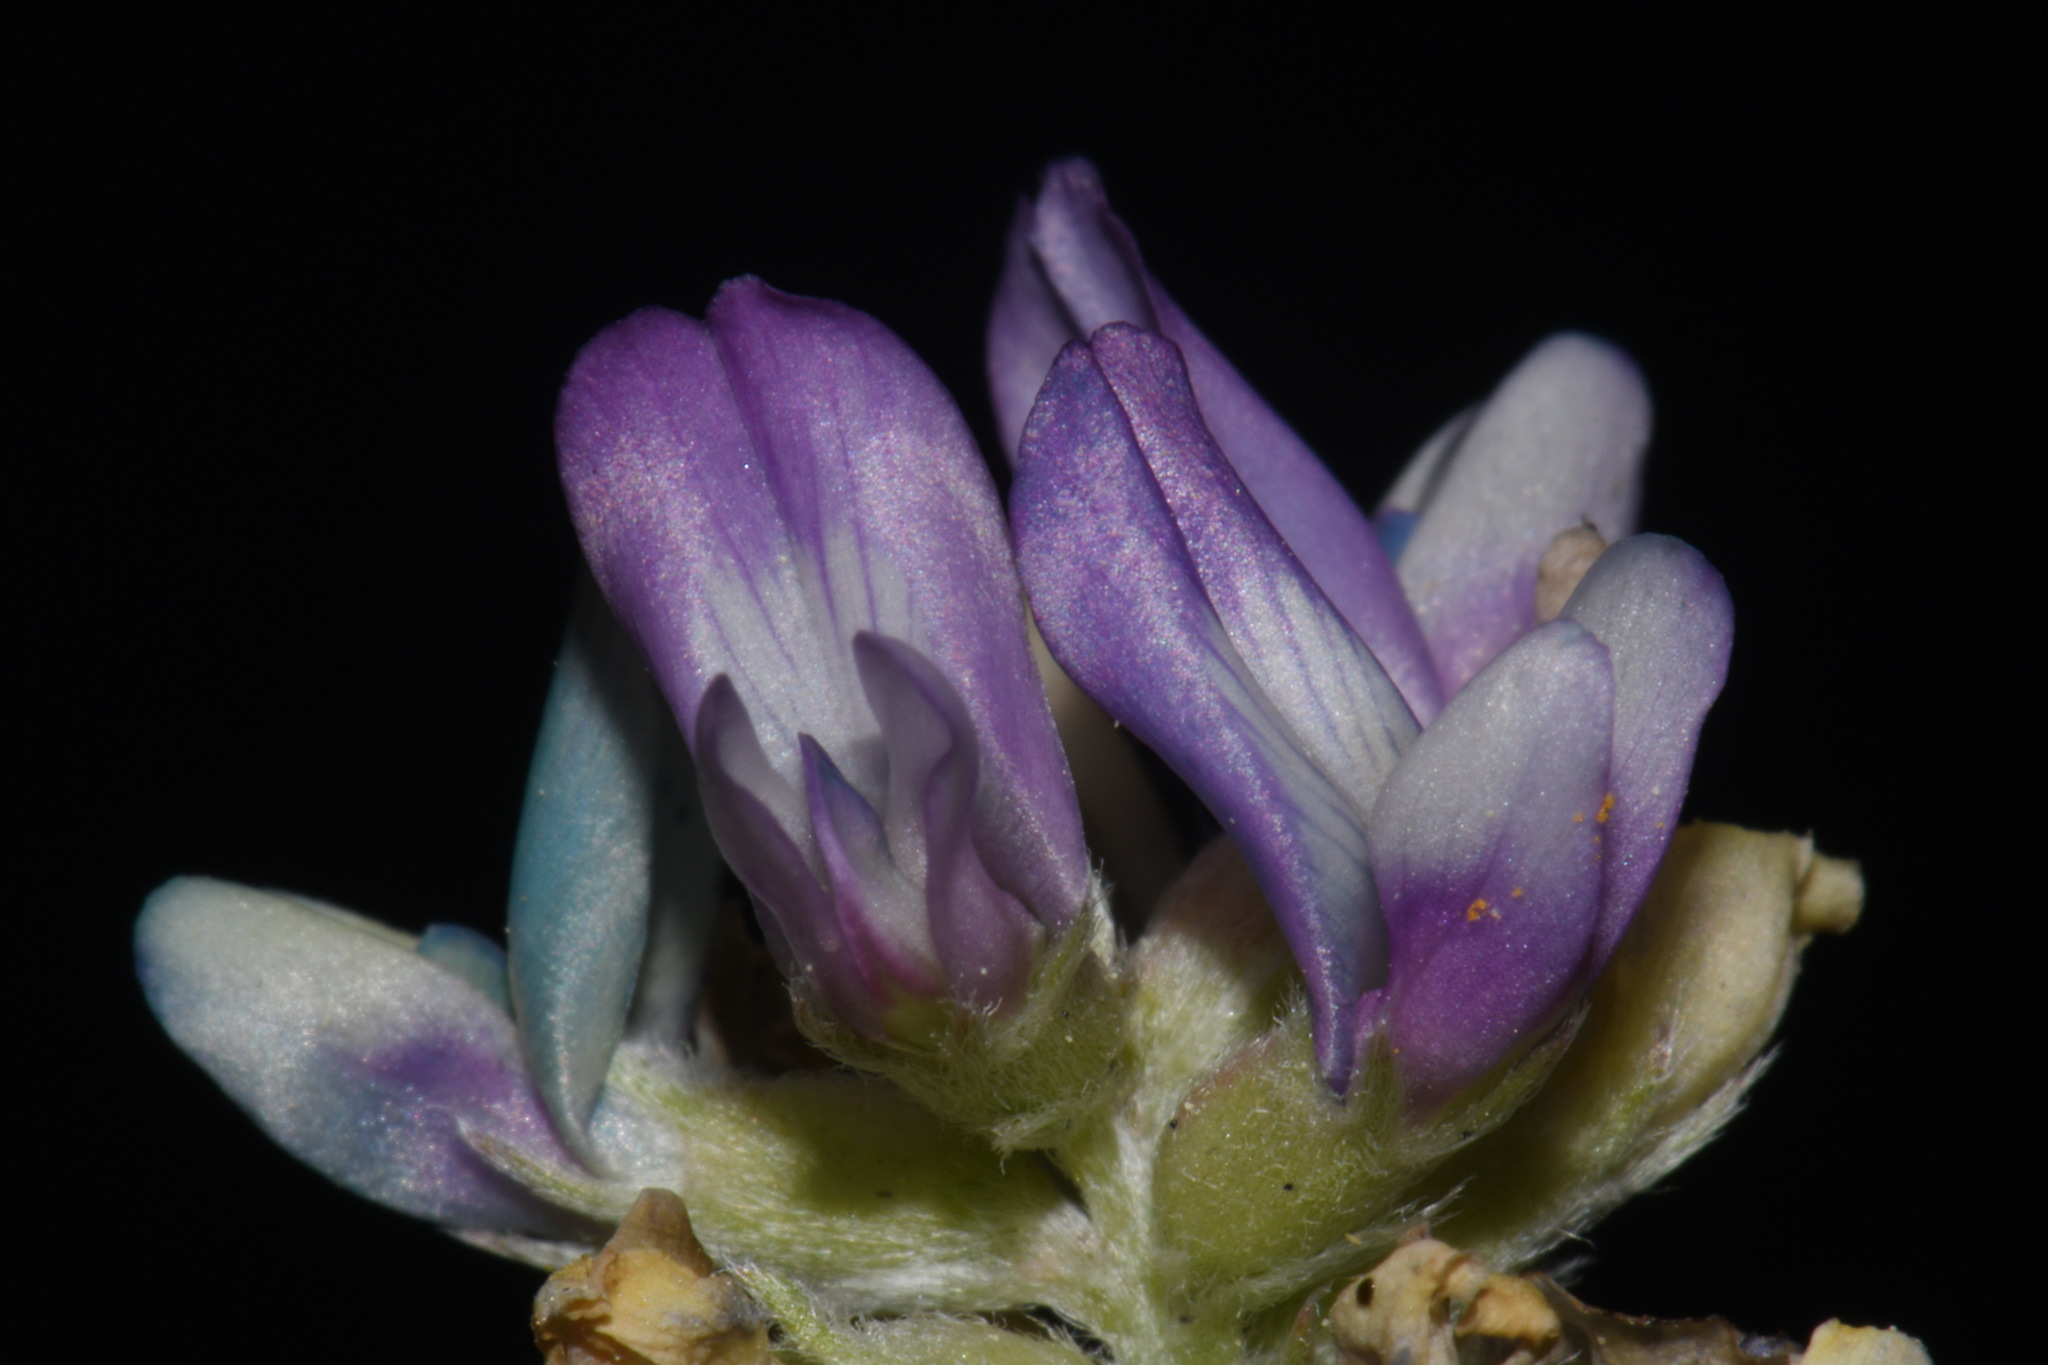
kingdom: Plantae
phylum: Tracheophyta
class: Magnoliopsida
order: Fabales
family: Fabaceae
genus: Astragalus
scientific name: Astragalus gilensis
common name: Gila milk-vetch
